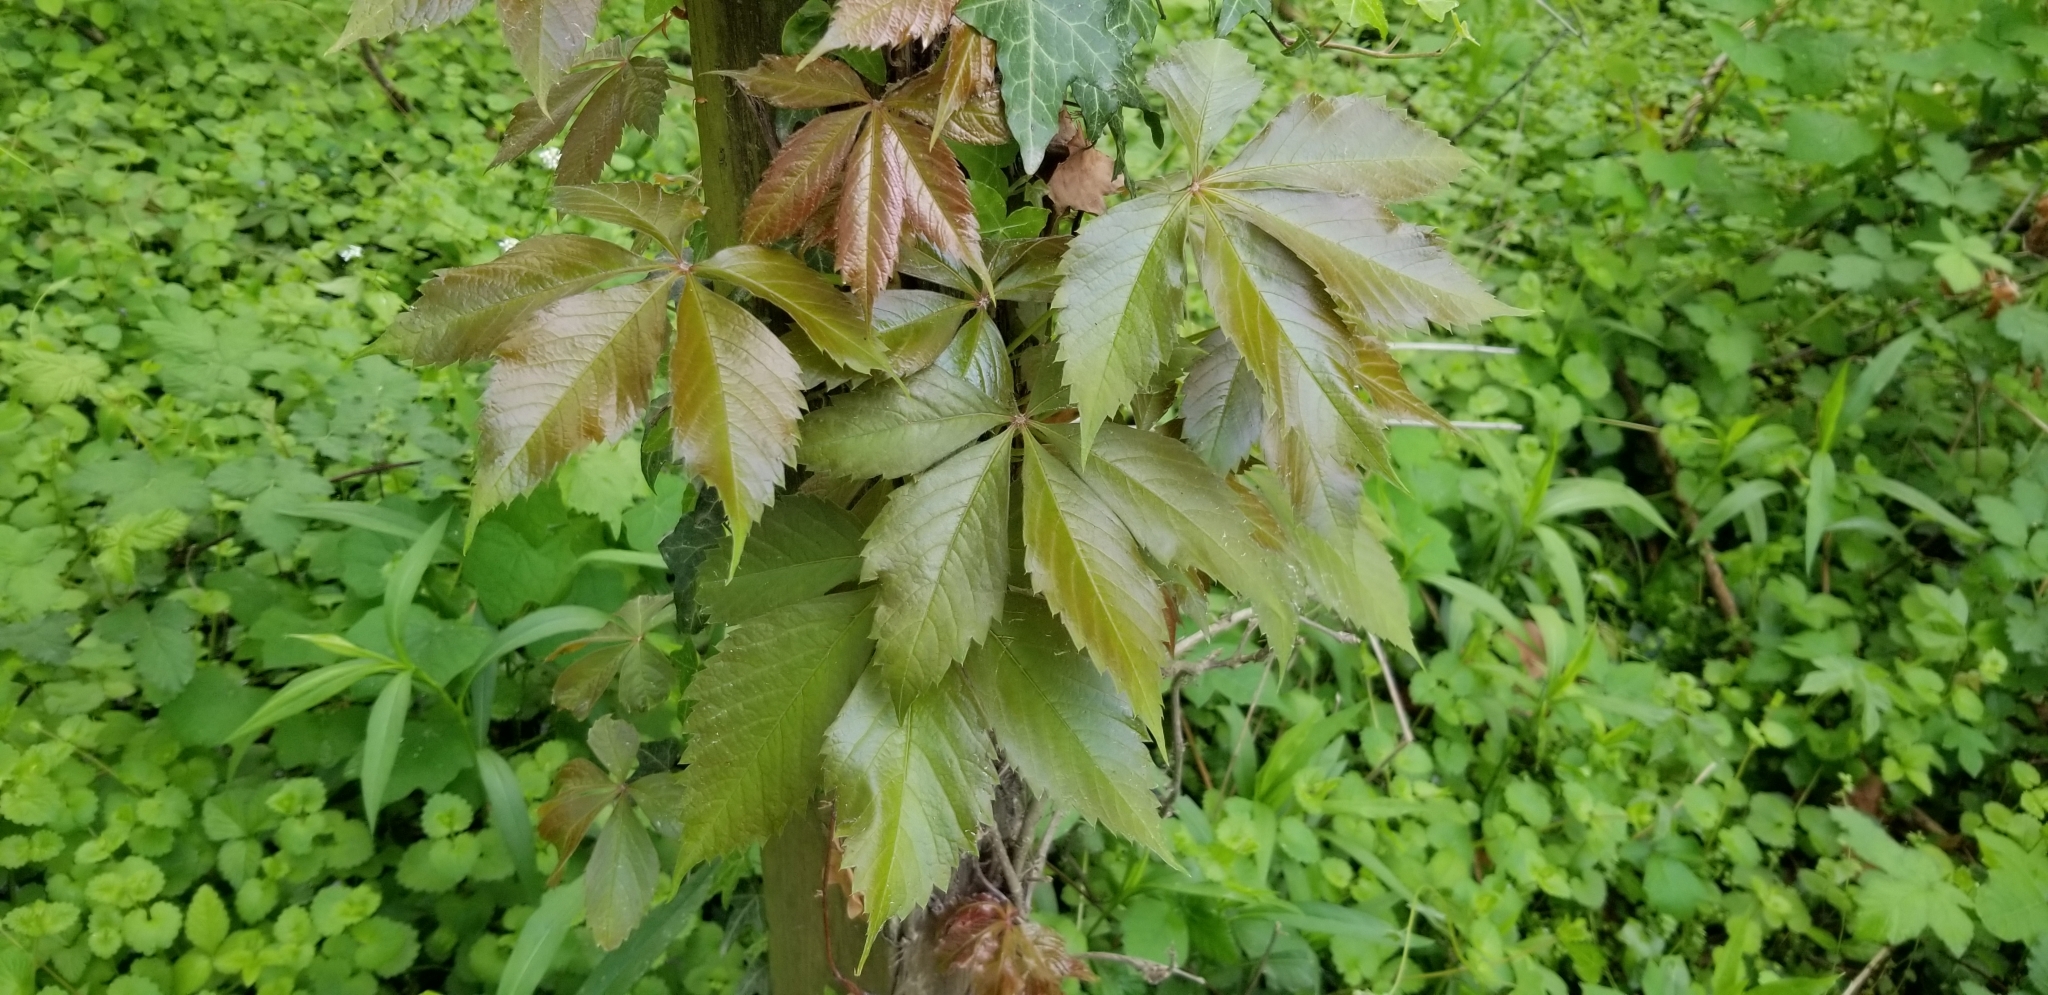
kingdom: Plantae
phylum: Tracheophyta
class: Magnoliopsida
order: Vitales
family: Vitaceae
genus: Parthenocissus
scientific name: Parthenocissus quinquefolia
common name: Virginia-creeper
